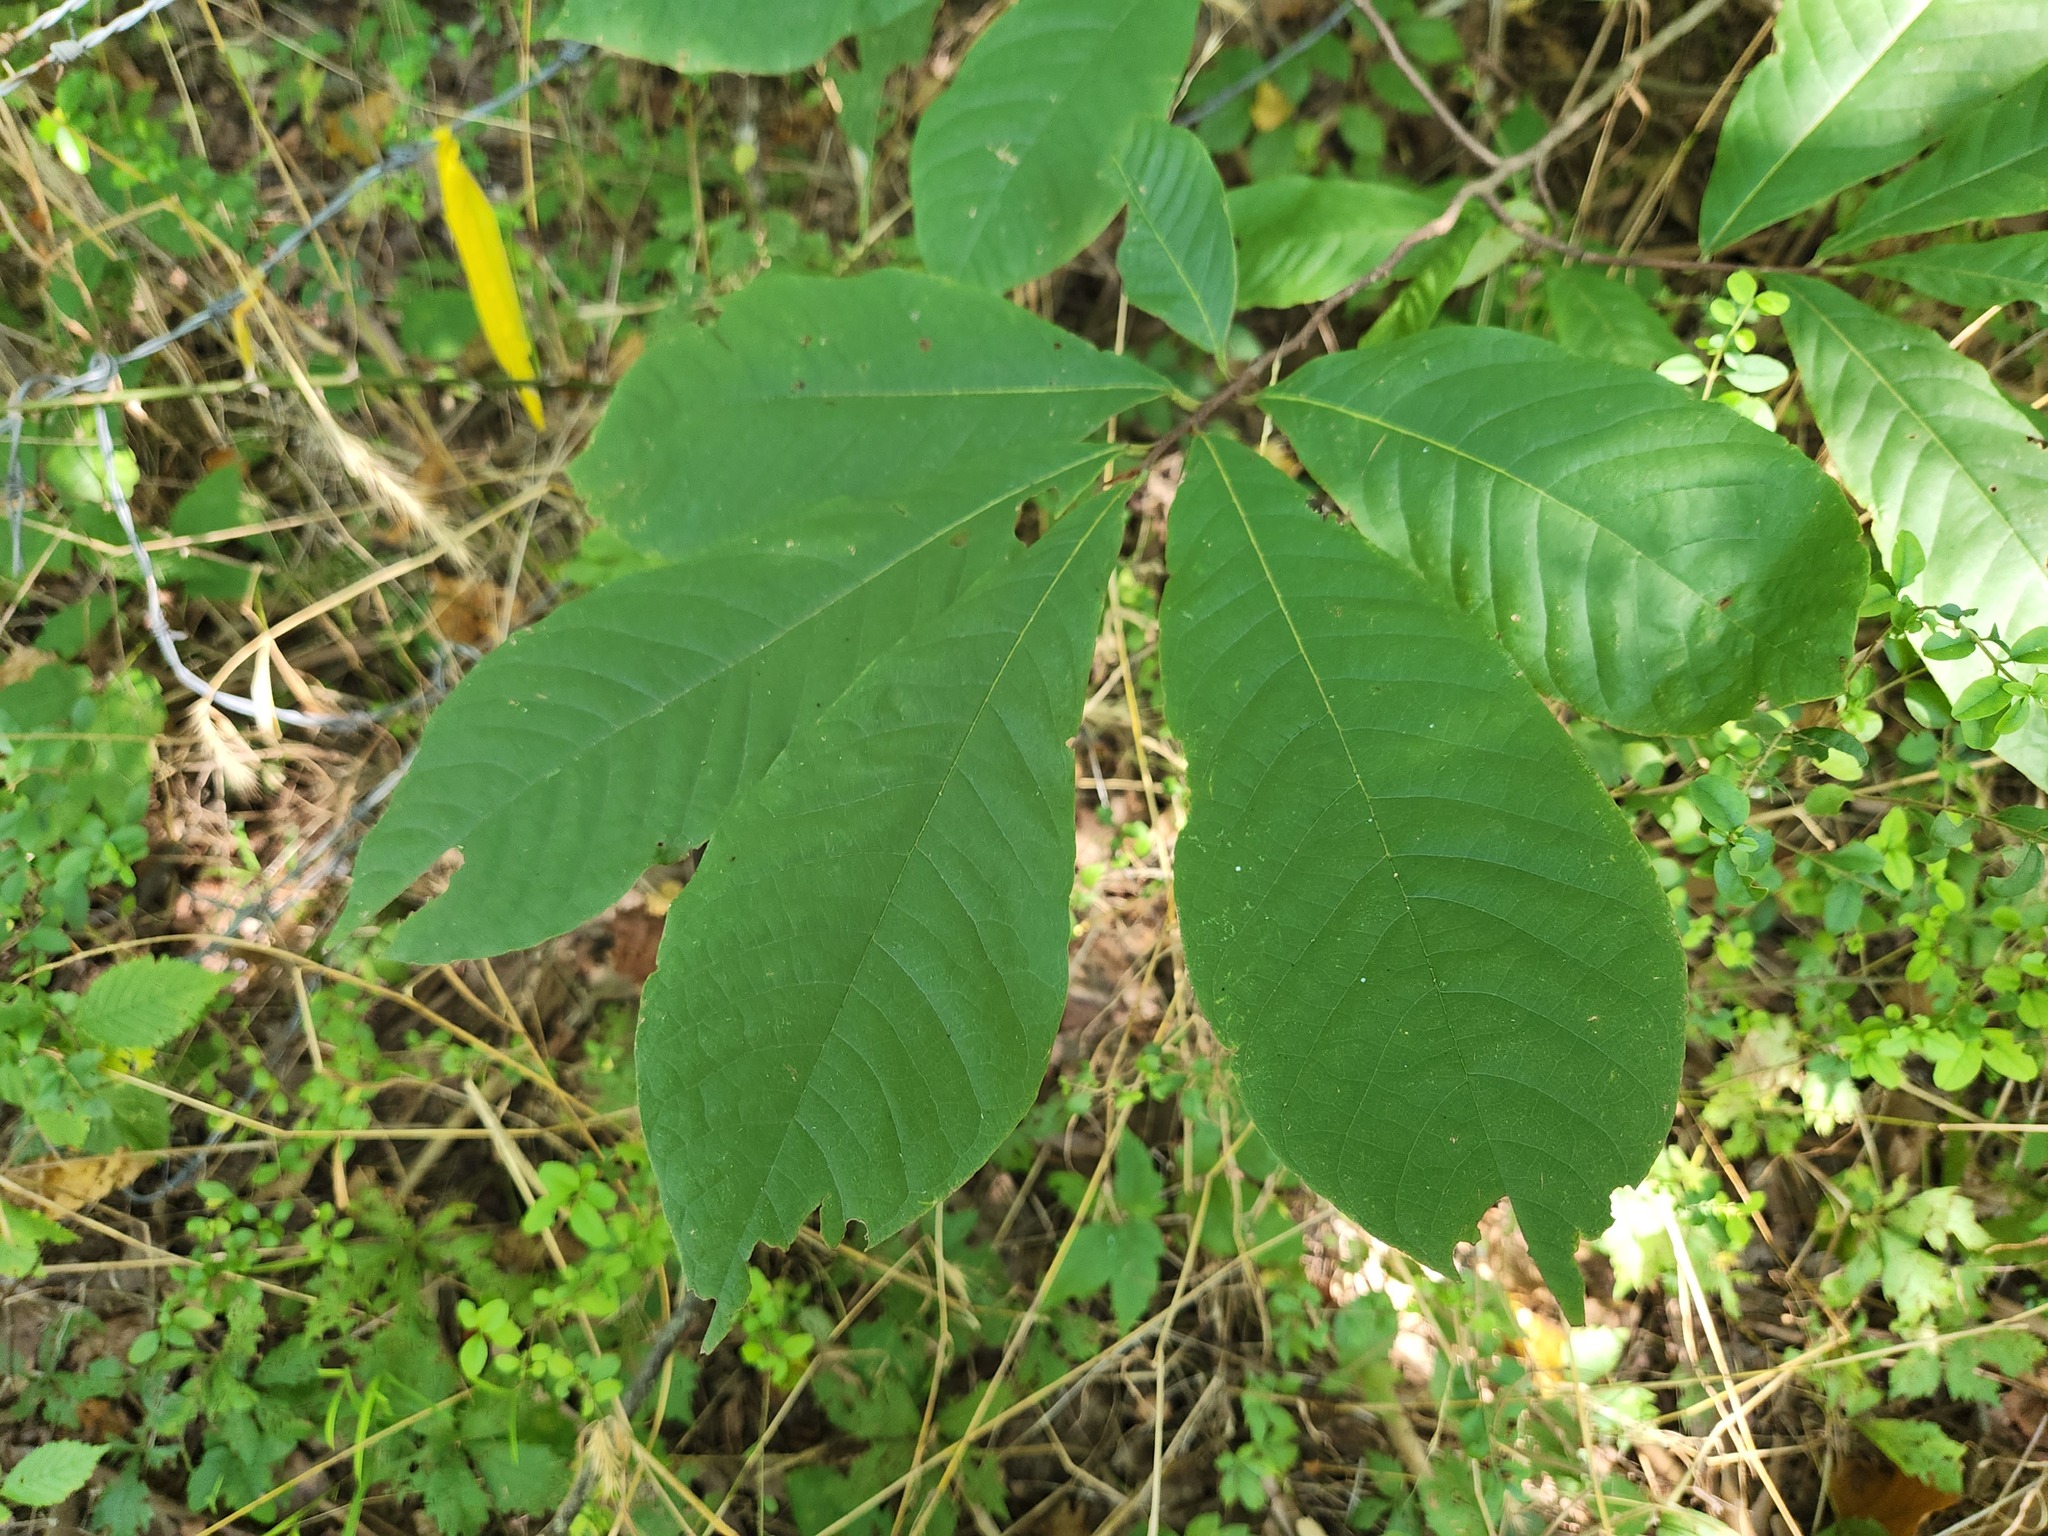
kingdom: Plantae
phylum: Tracheophyta
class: Magnoliopsida
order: Magnoliales
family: Annonaceae
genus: Asimina
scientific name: Asimina triloba
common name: Dog-banana
